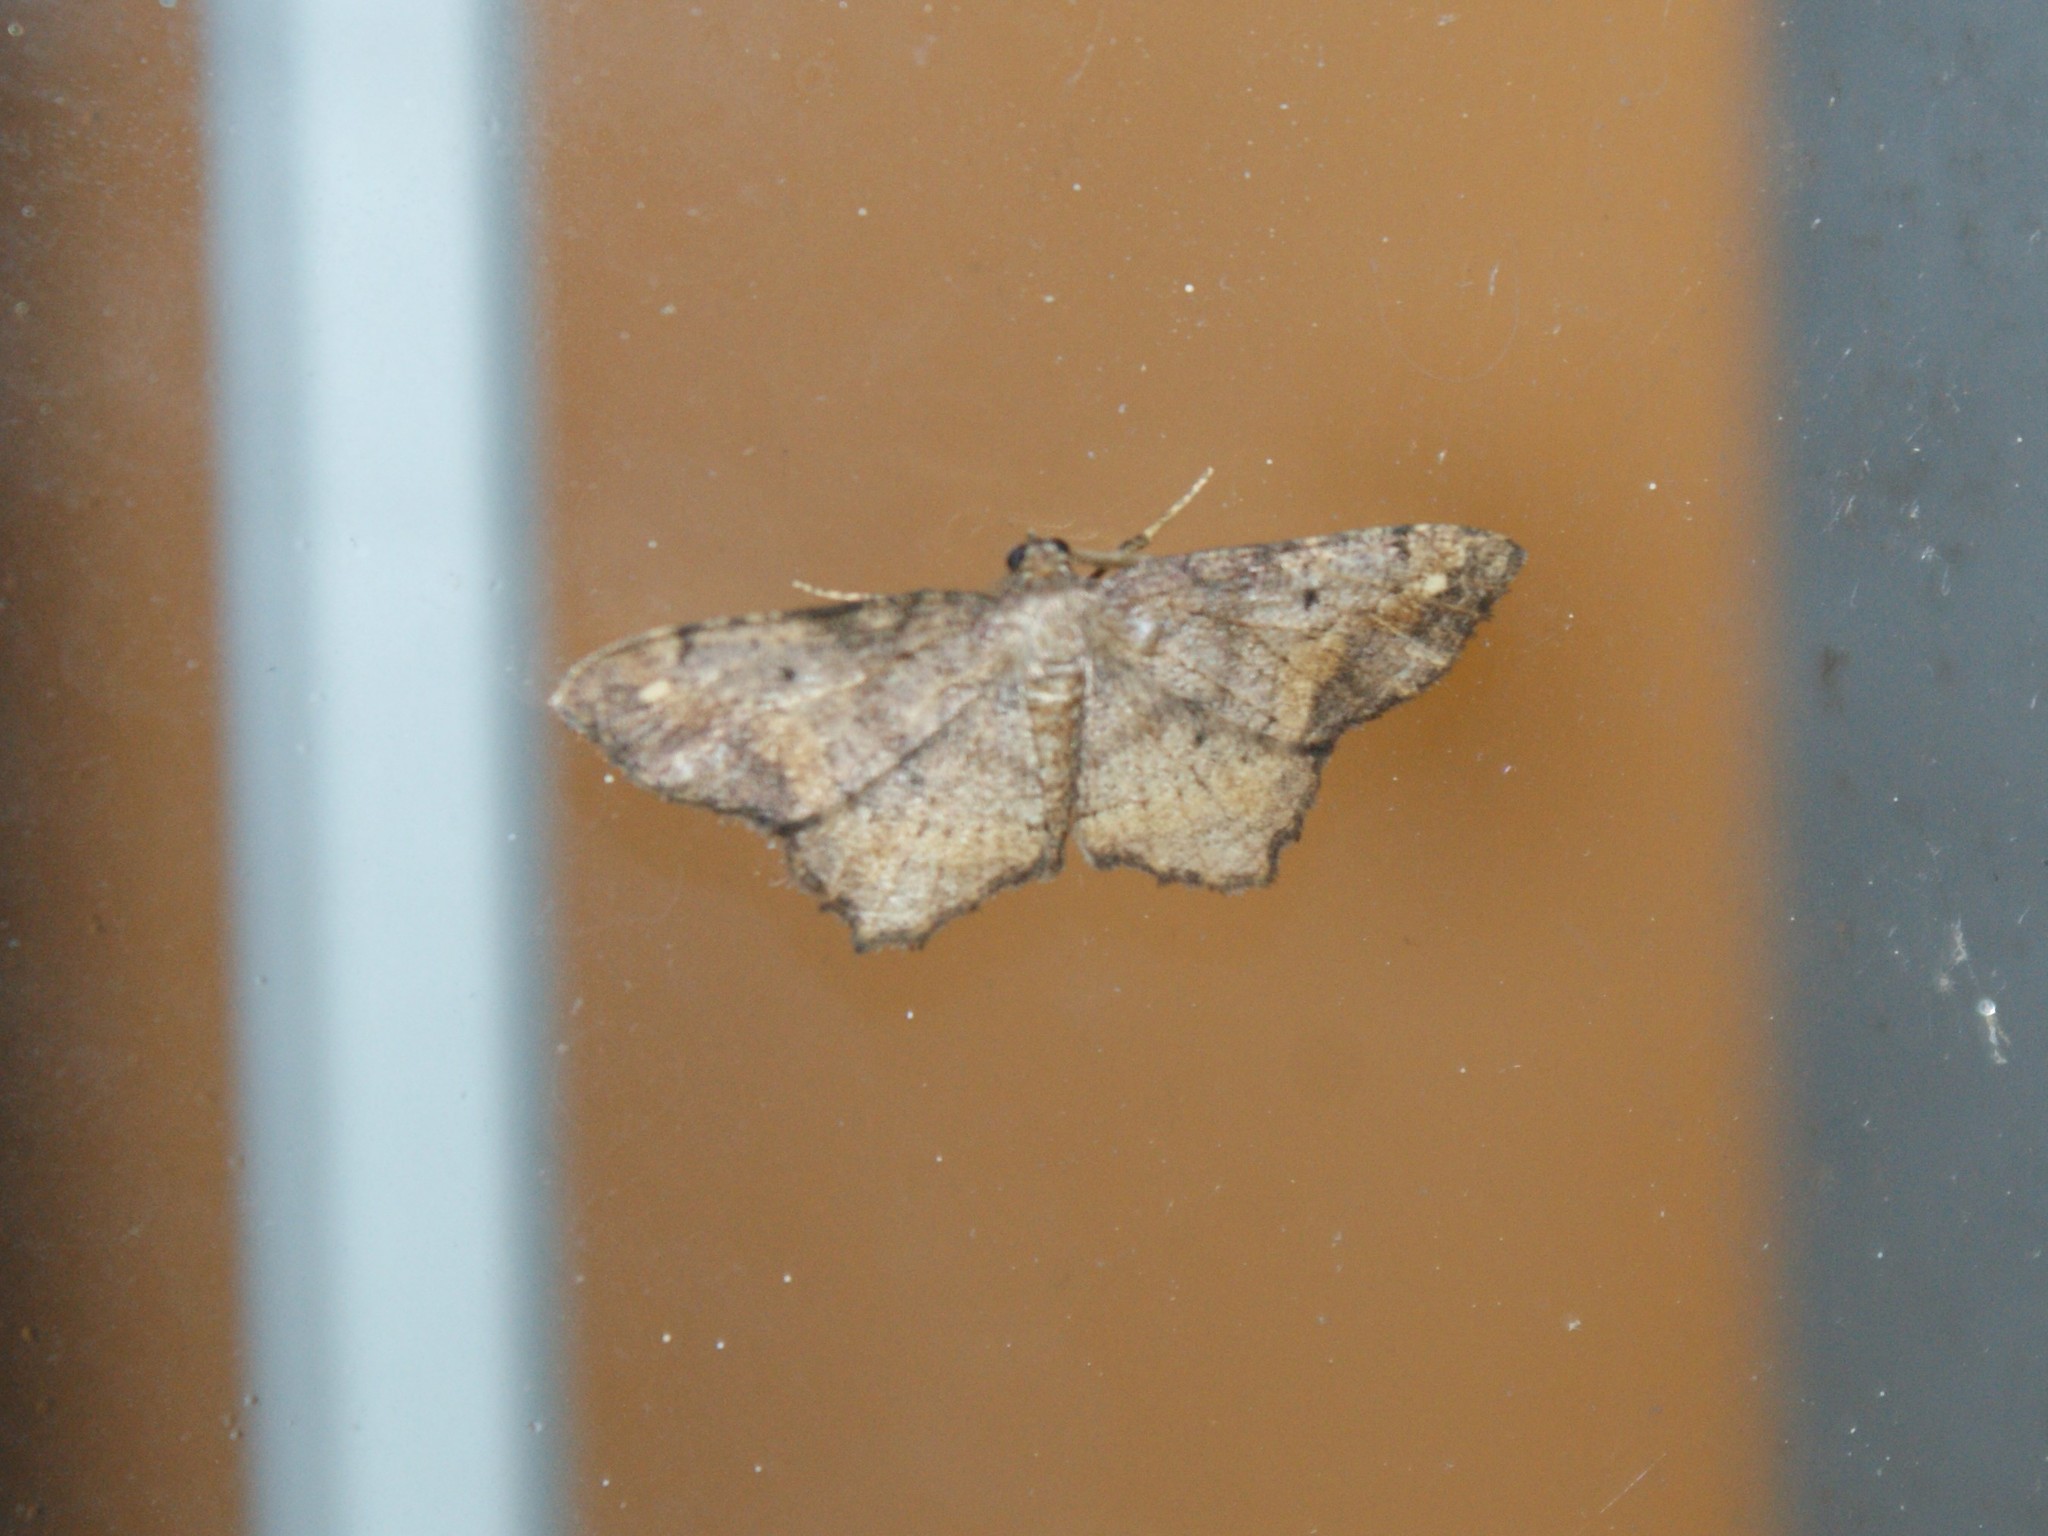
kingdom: Animalia
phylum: Arthropoda
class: Insecta
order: Lepidoptera
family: Geometridae
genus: Hypagyrtis
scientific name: Hypagyrtis
